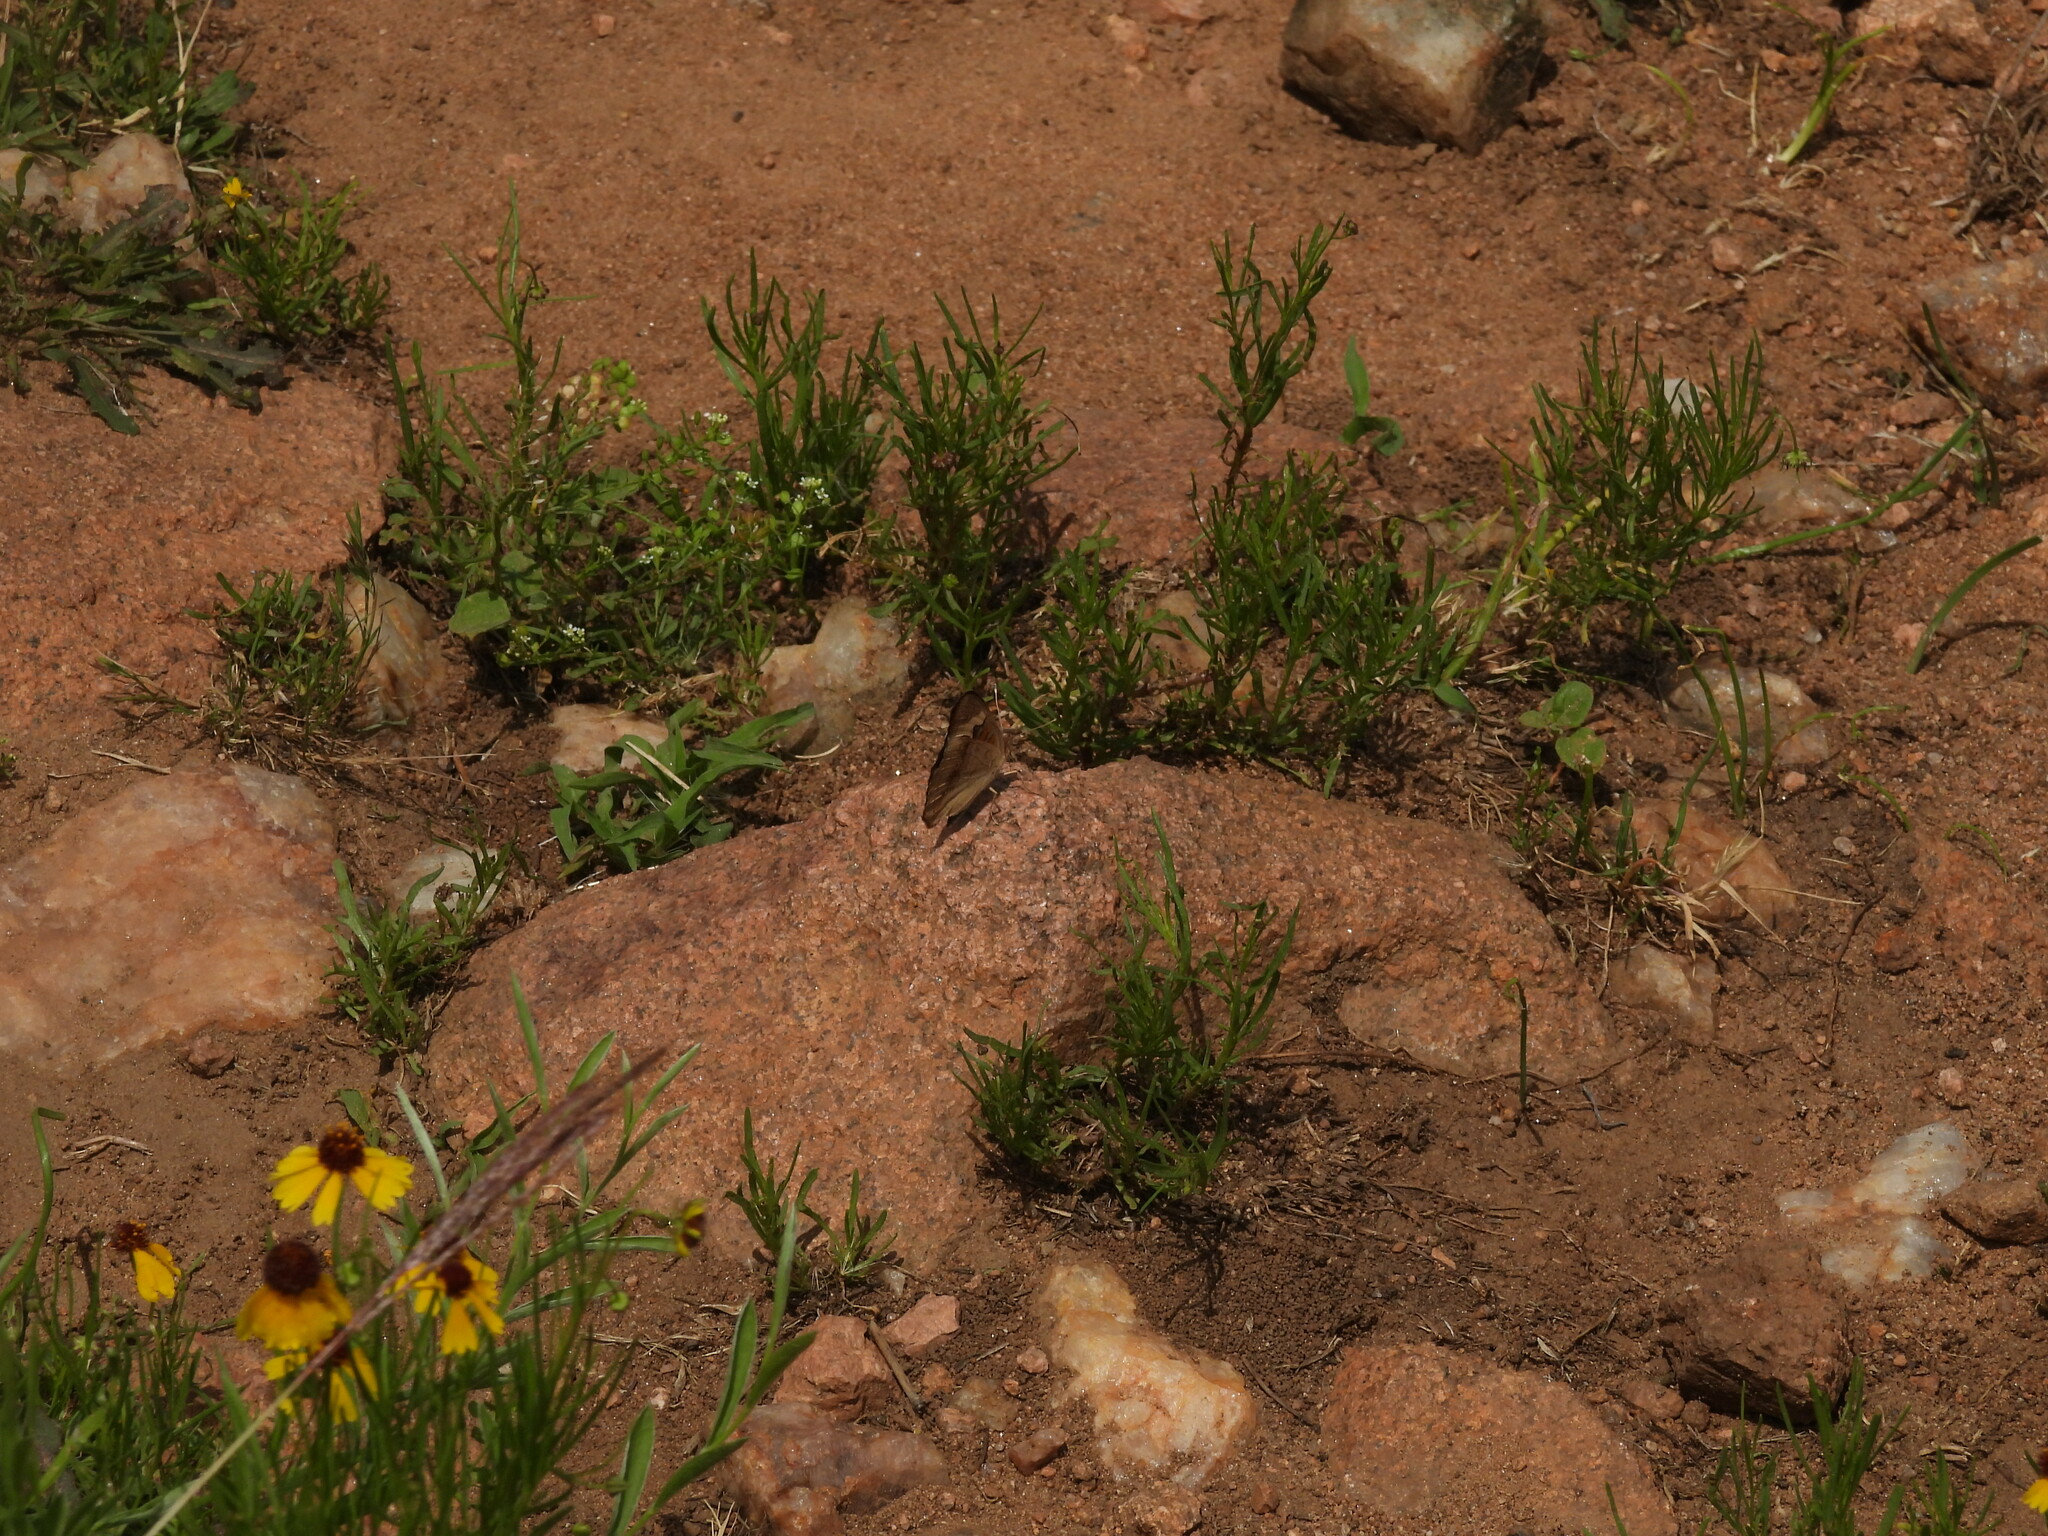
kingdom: Animalia
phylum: Arthropoda
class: Insecta
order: Lepidoptera
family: Nymphalidae
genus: Junonia
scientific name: Junonia coenia
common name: Common buckeye
